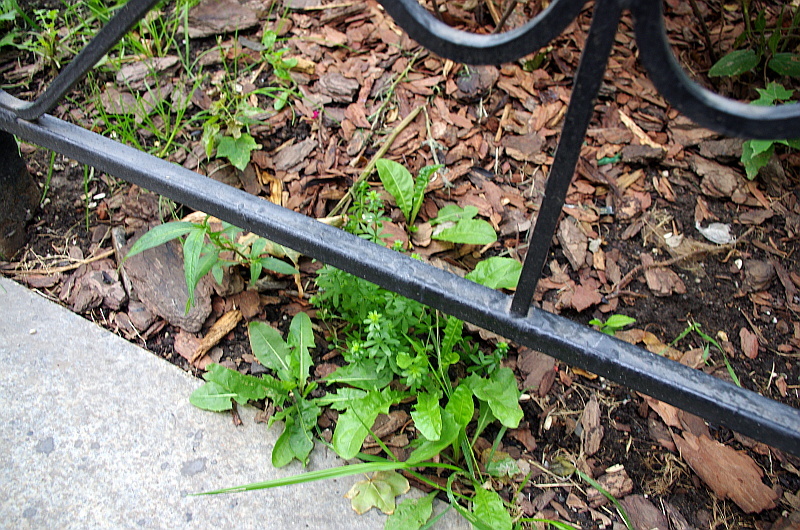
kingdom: Plantae
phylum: Tracheophyta
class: Magnoliopsida
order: Caryophyllales
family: Polygonaceae
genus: Persicaria
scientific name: Persicaria maculosa
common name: Redshank
